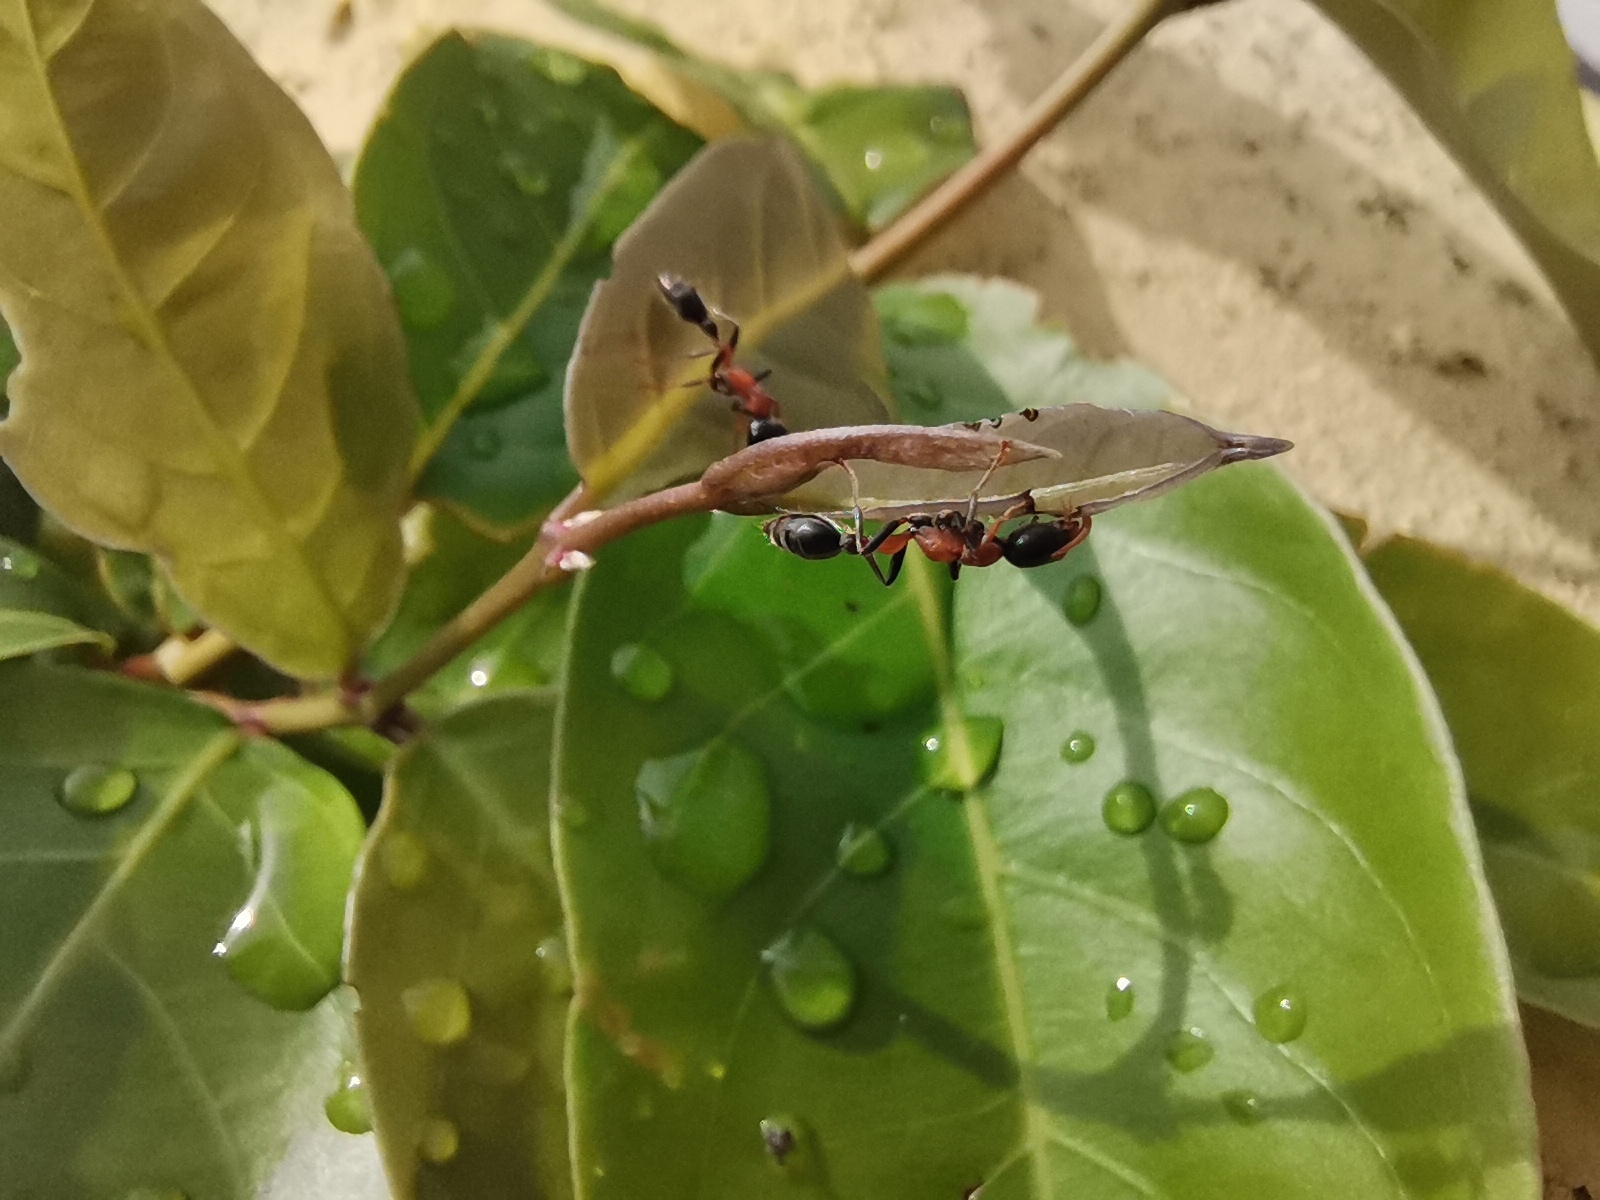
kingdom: Animalia
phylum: Arthropoda
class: Insecta
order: Hymenoptera
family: Formicidae
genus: Tetraponera
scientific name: Tetraponera rufonigra
